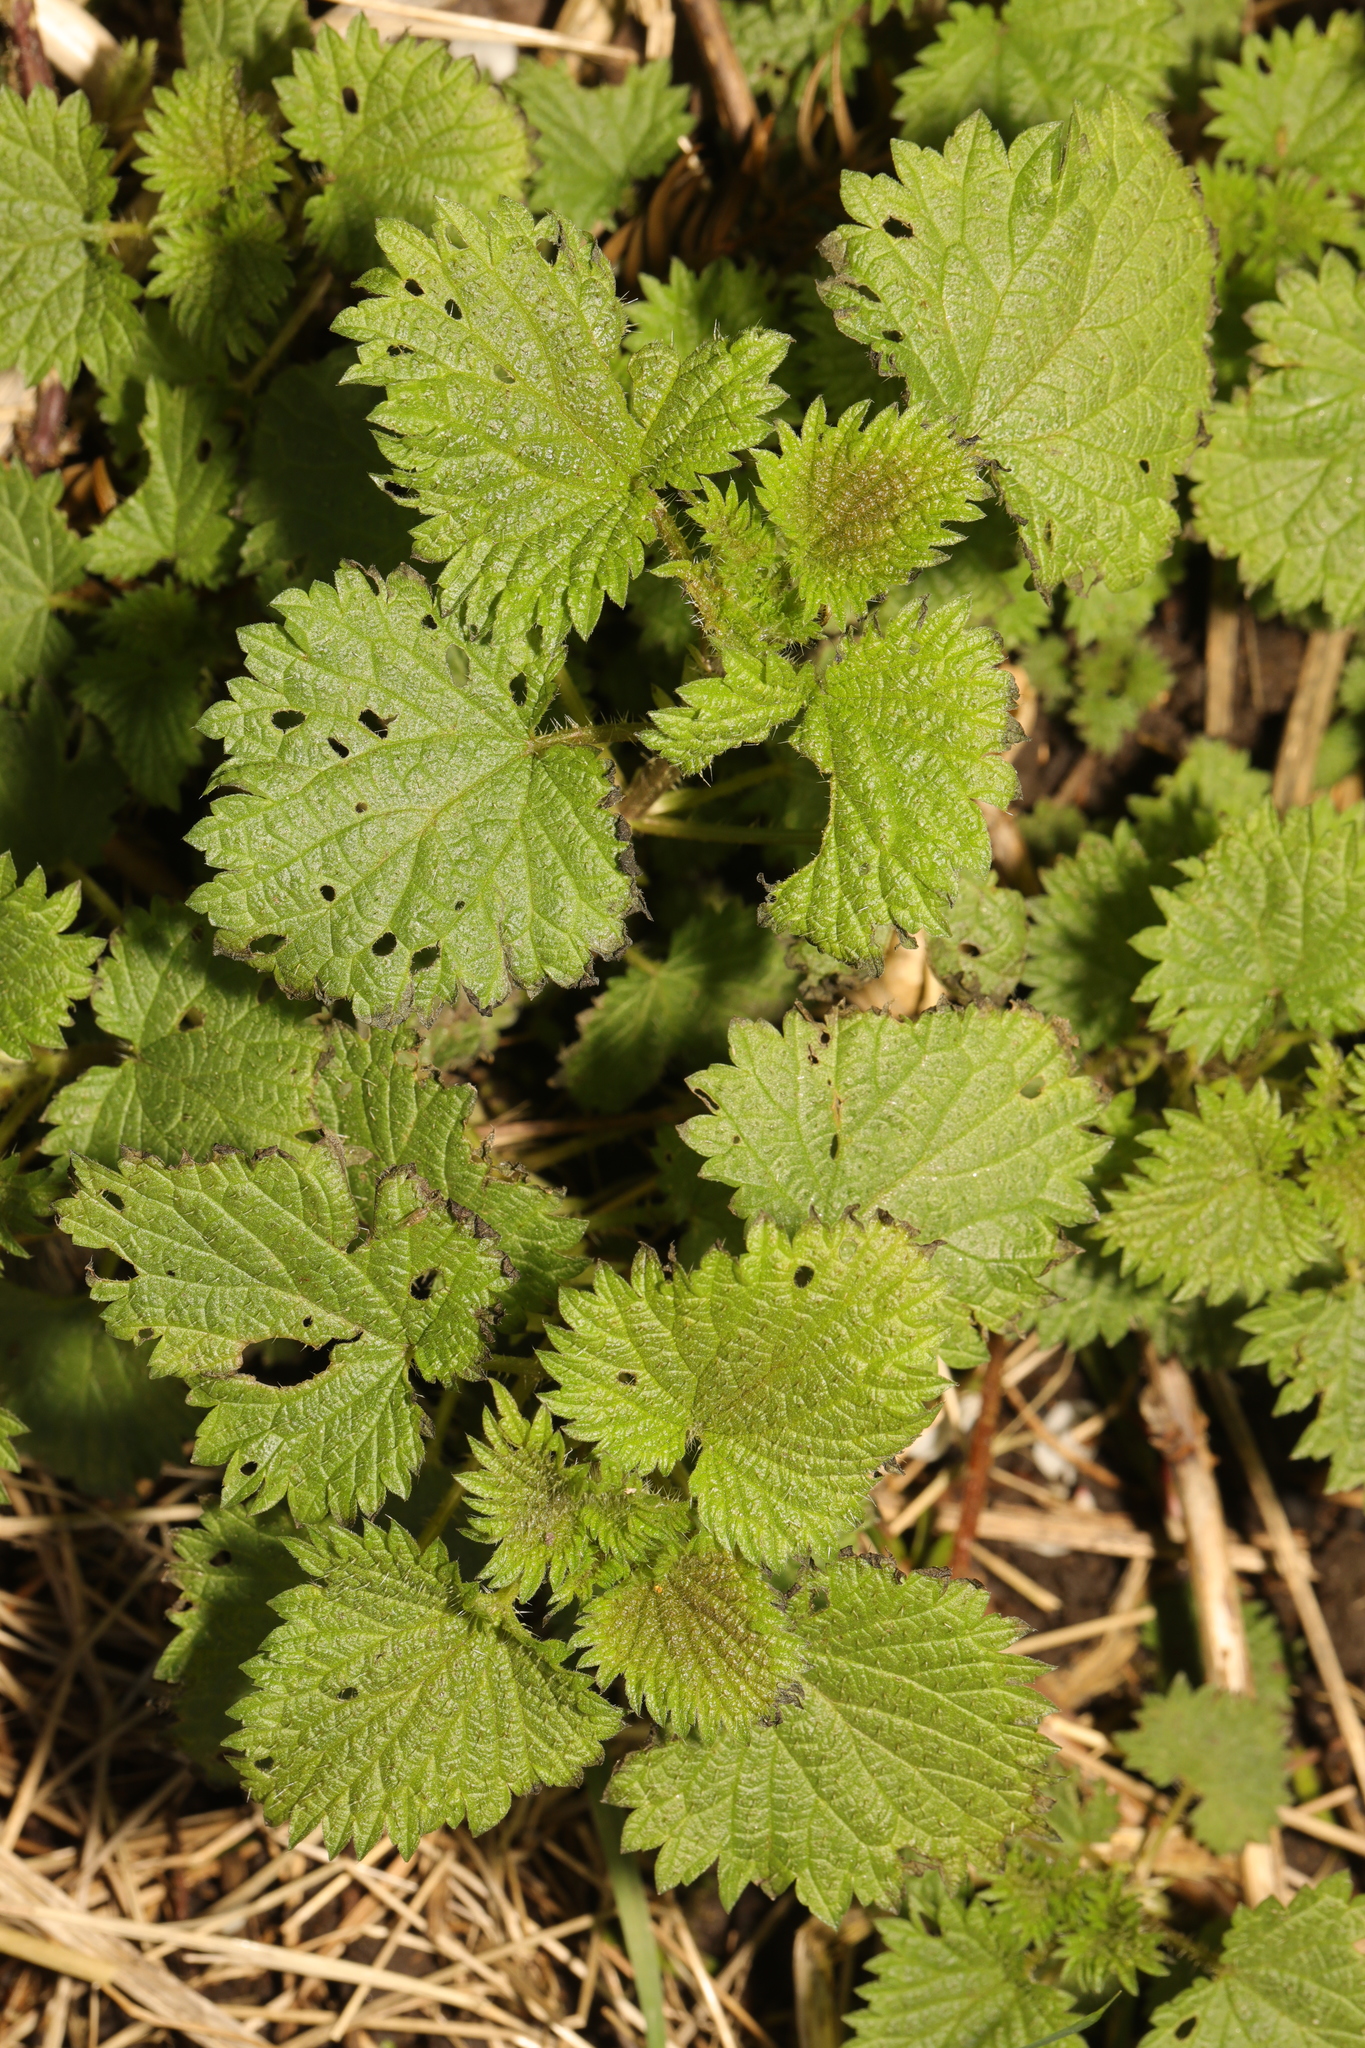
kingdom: Plantae
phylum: Tracheophyta
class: Magnoliopsida
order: Rosales
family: Urticaceae
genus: Urtica
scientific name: Urtica dioica
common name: Common nettle
